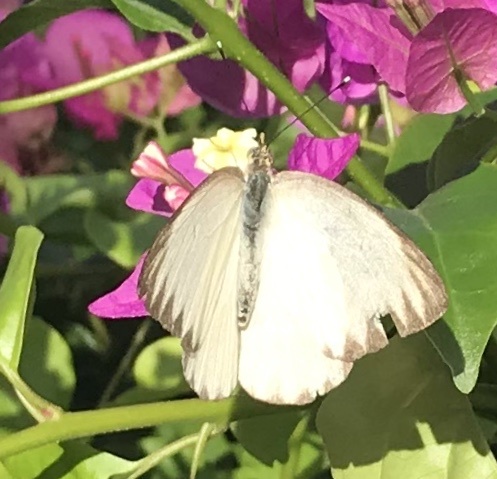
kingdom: Animalia
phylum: Arthropoda
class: Insecta
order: Lepidoptera
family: Pieridae
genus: Ascia
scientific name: Ascia monuste
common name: Great southern white
